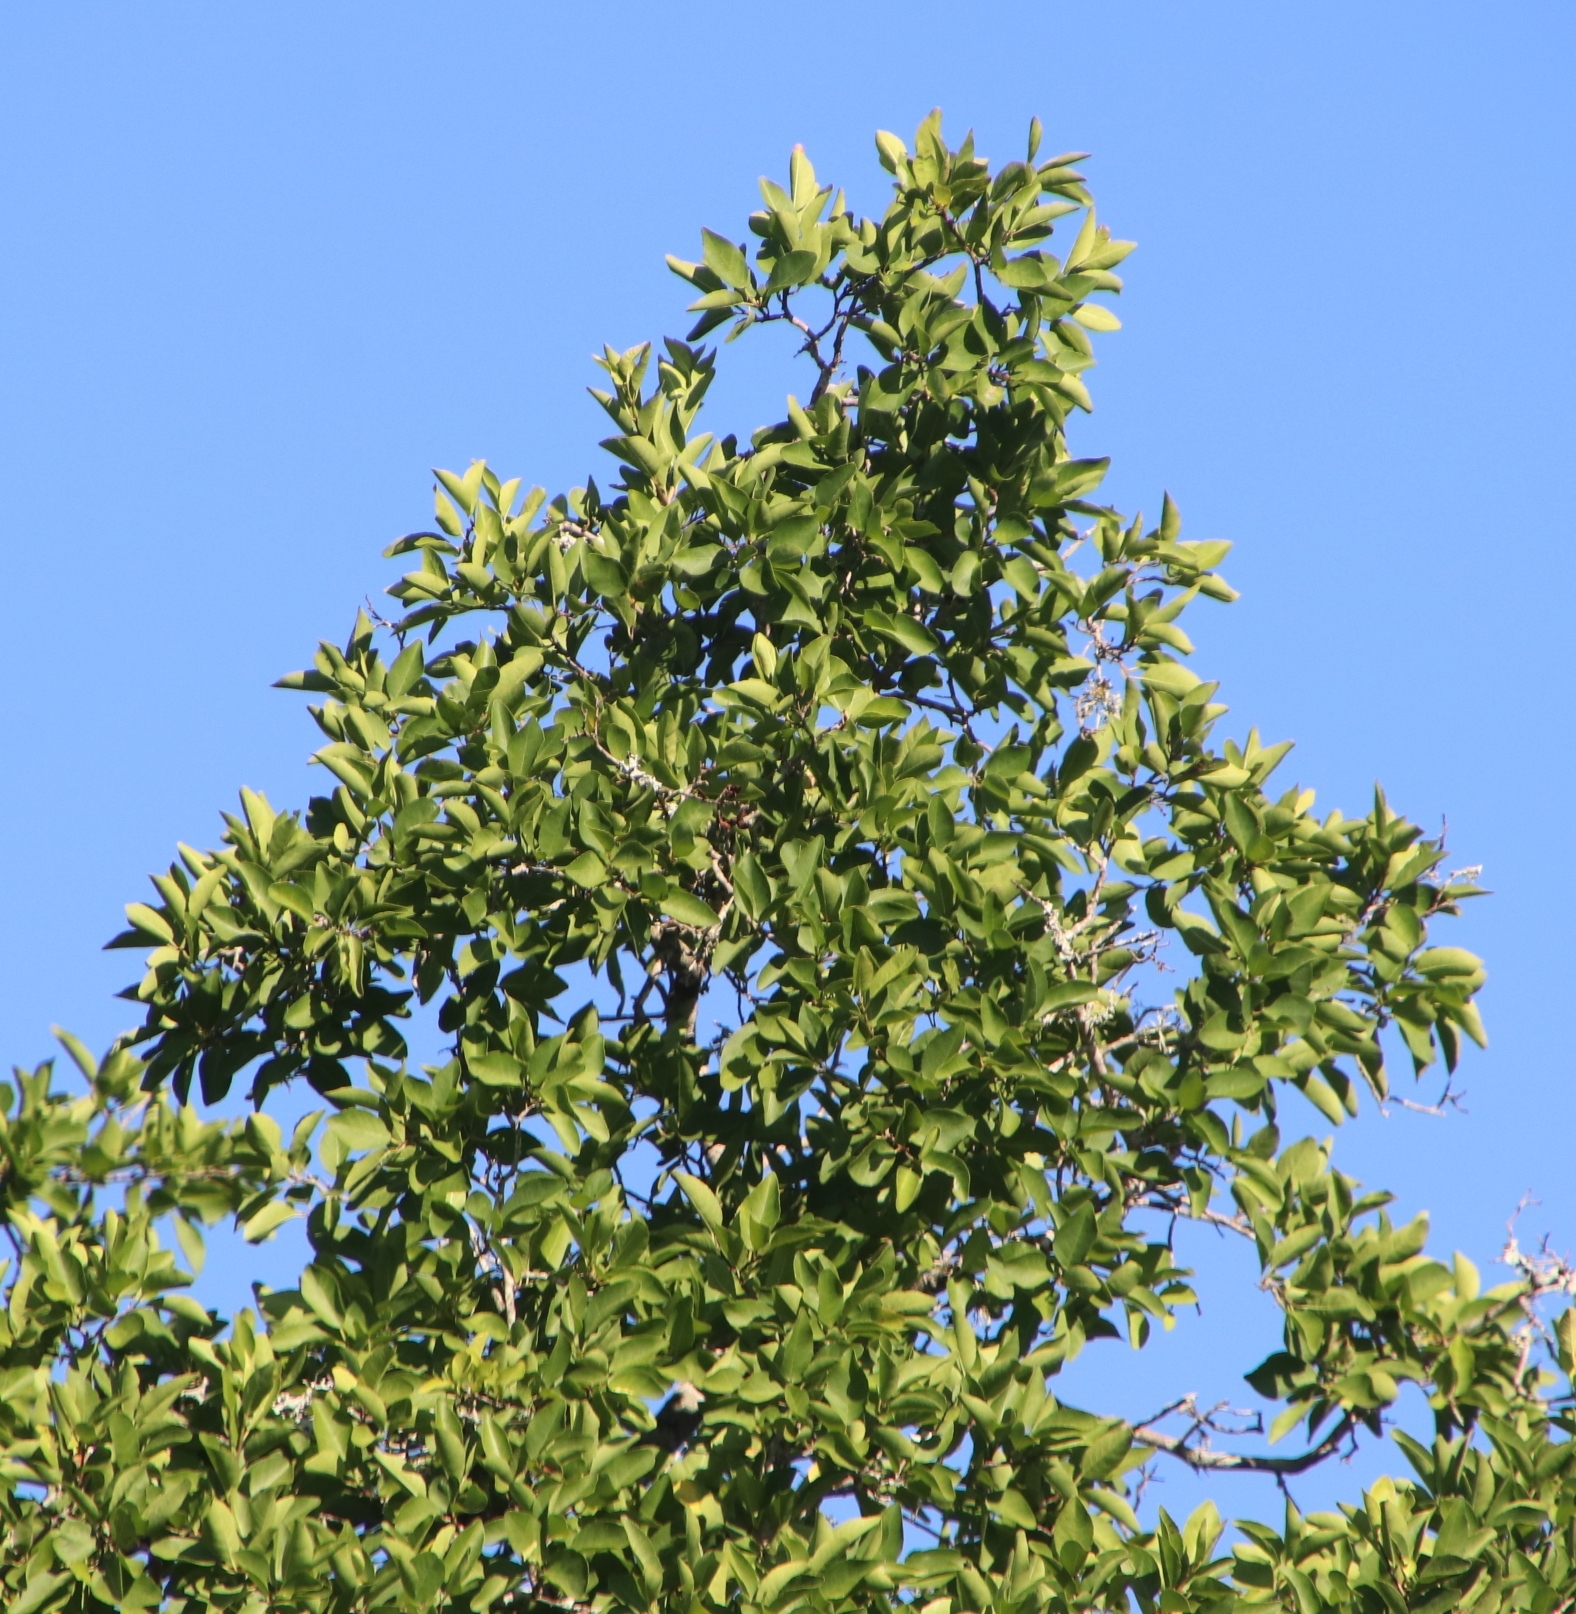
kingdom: Plantae
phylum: Tracheophyta
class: Magnoliopsida
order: Malpighiales
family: Euphorbiaceae
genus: Spirostachys
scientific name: Spirostachys africana
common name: Tamboti
